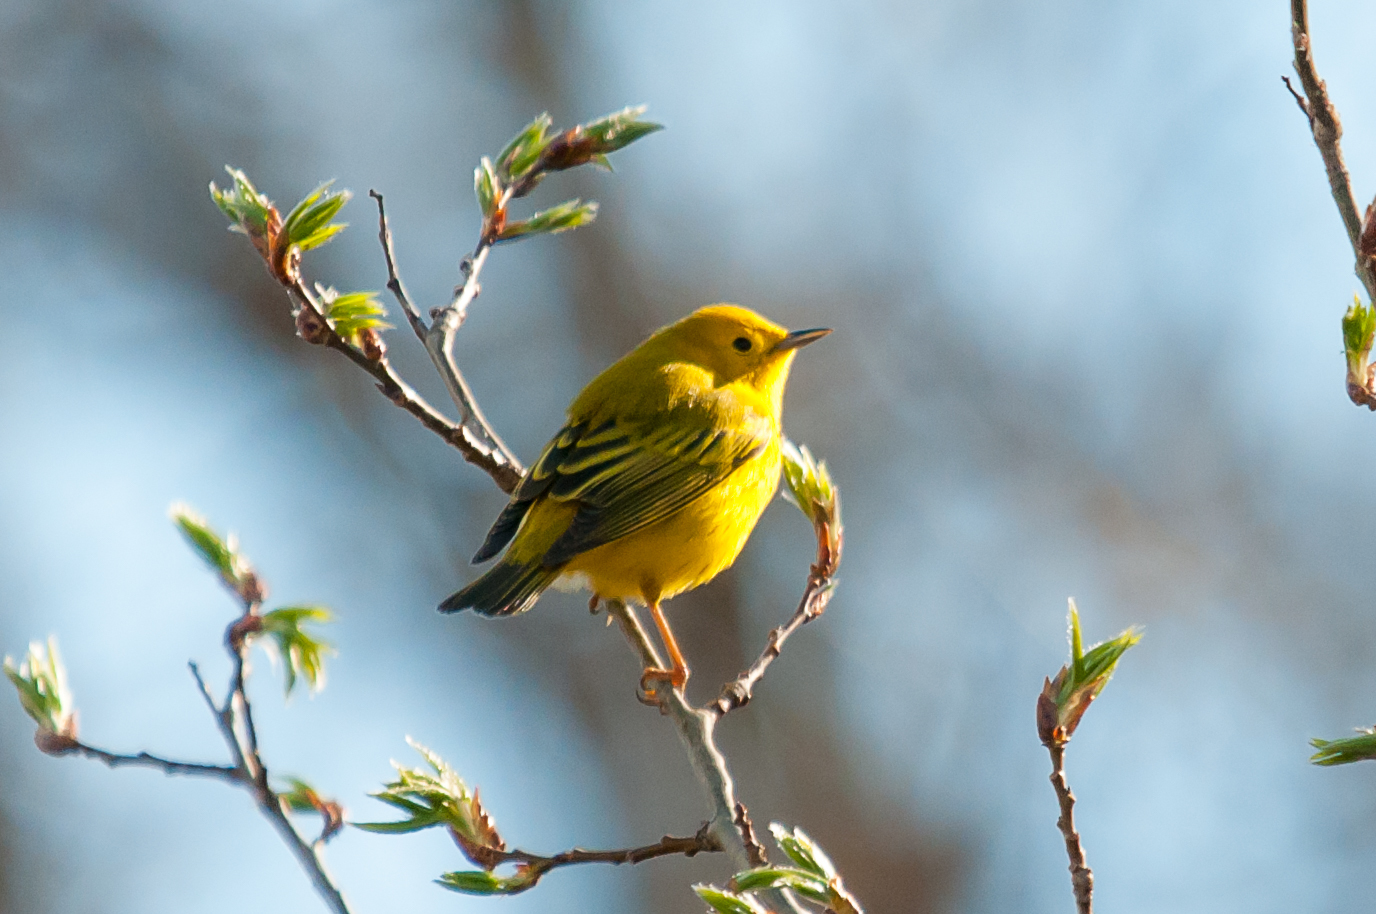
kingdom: Animalia
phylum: Chordata
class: Aves
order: Passeriformes
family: Parulidae
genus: Setophaga
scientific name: Setophaga petechia
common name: Yellow warbler
